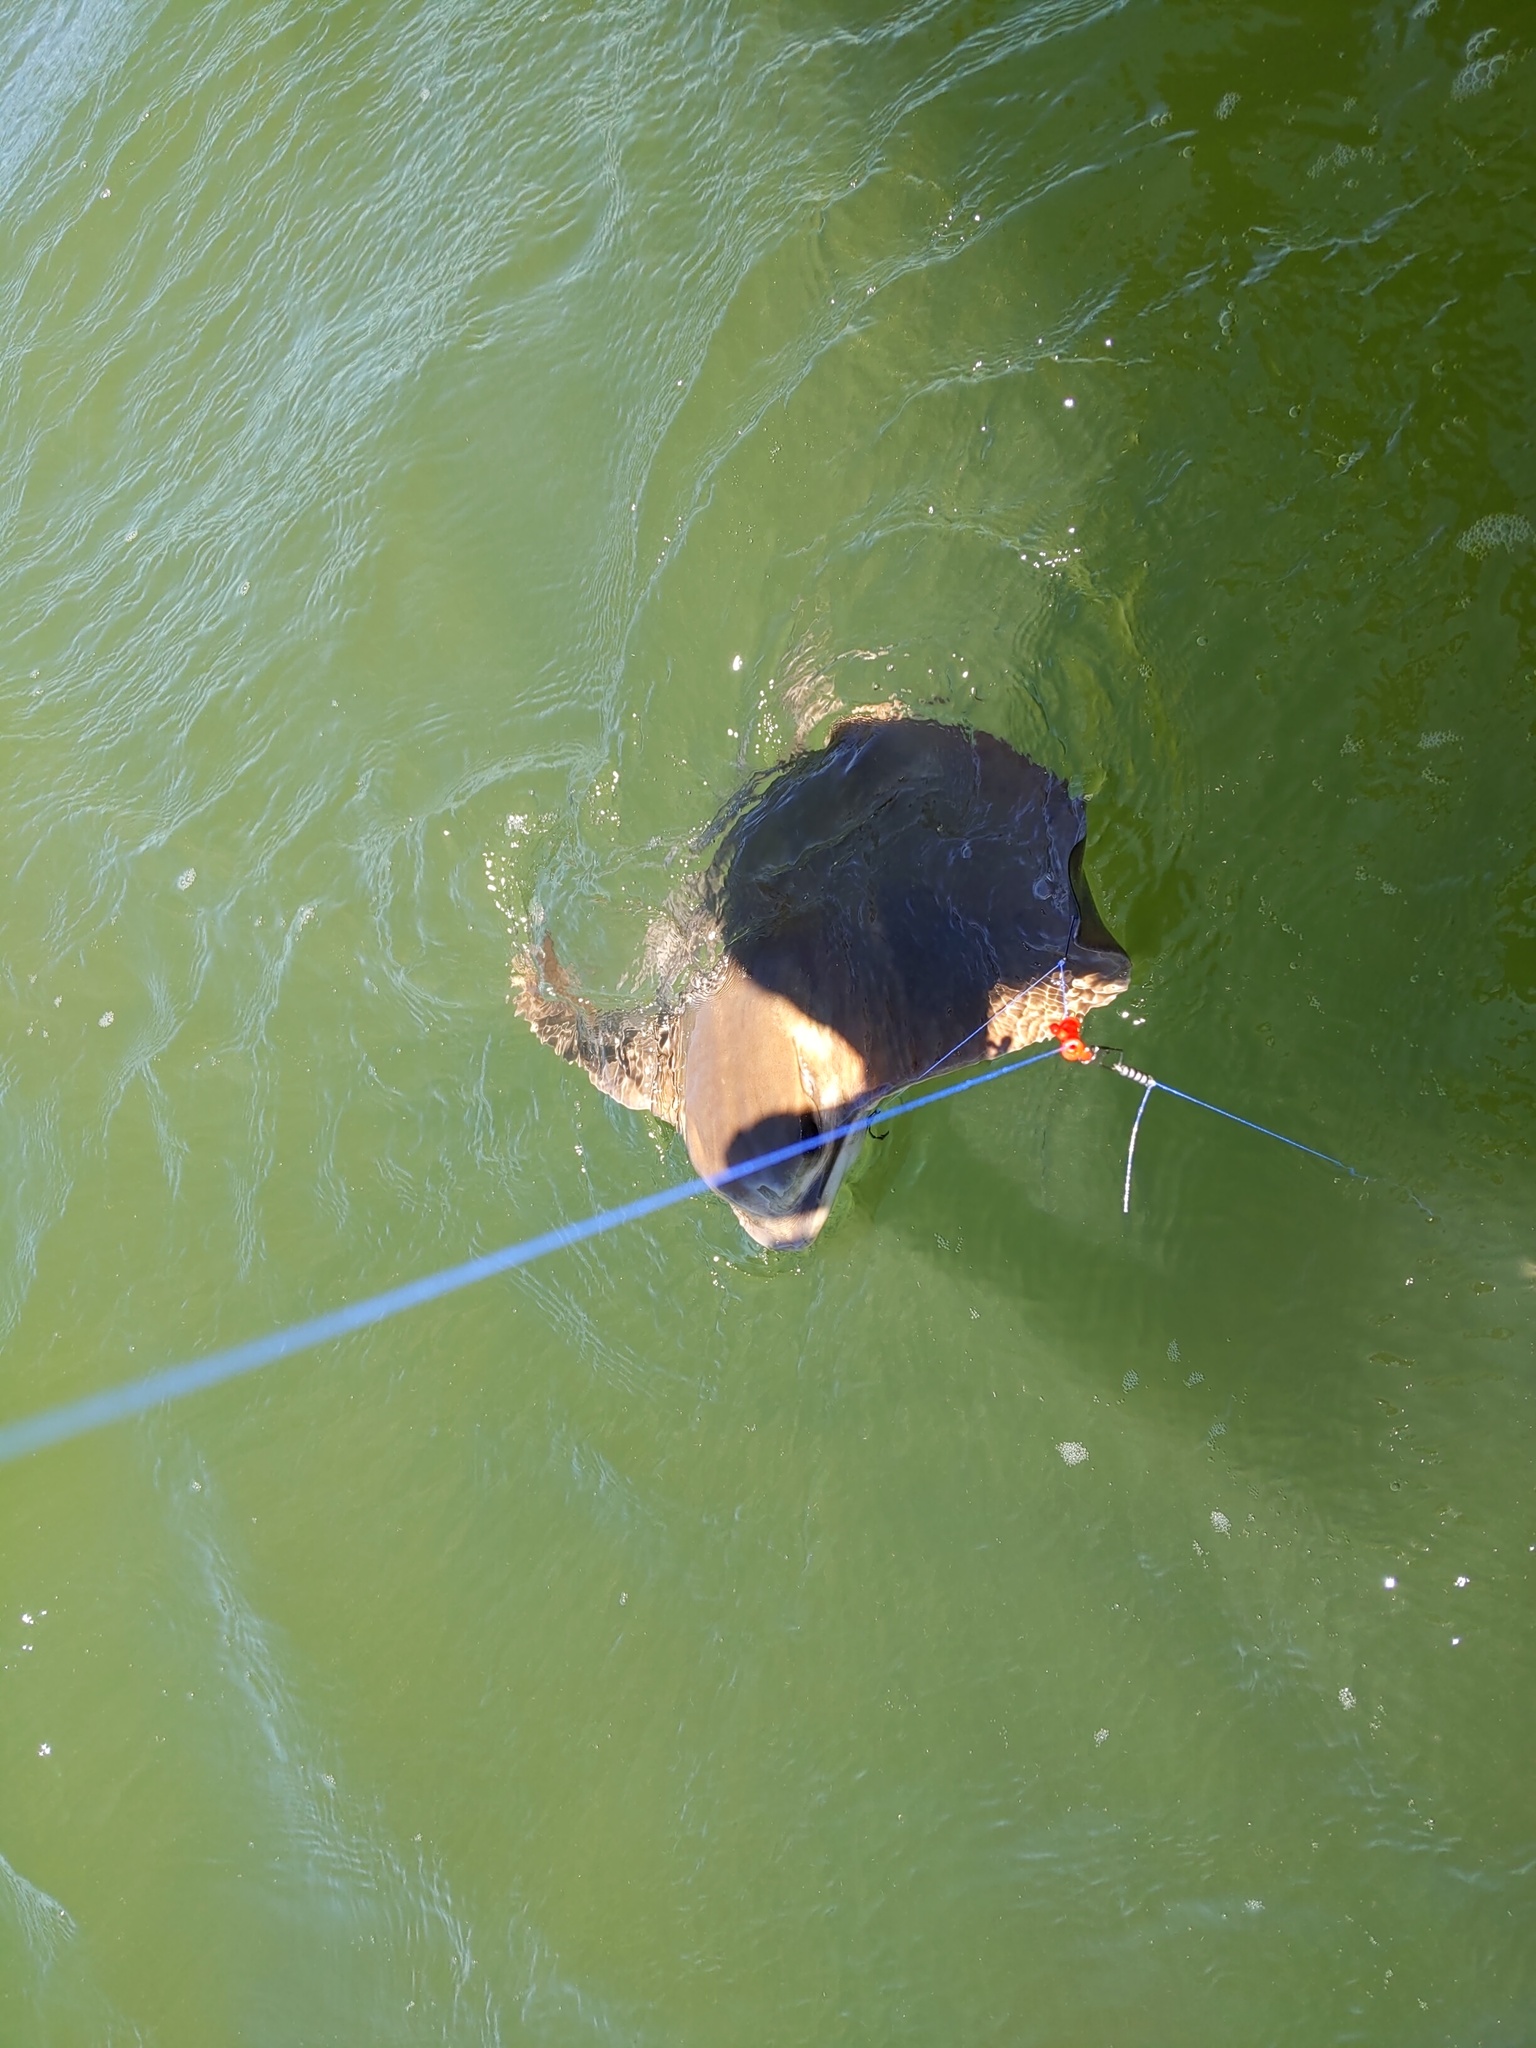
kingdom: Animalia
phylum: Chordata
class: Elasmobranchii
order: Myliobatiformes
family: Myliobatidae
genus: Myliobatis
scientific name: Myliobatis californica
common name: Bat ray
